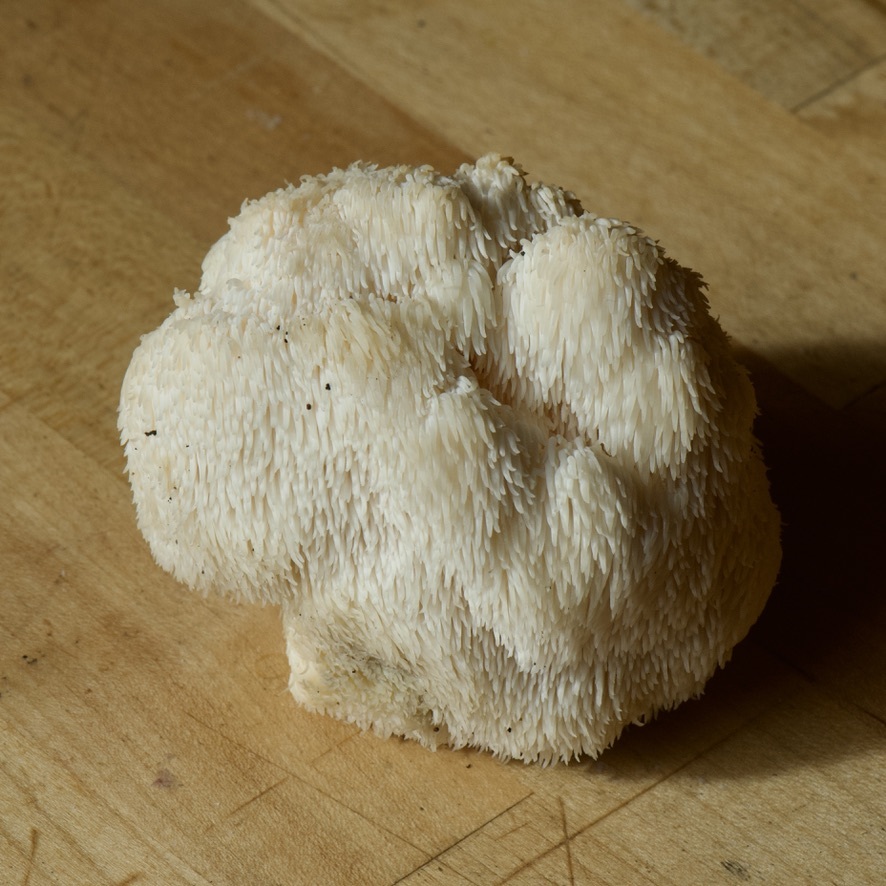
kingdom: Fungi
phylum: Basidiomycota
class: Agaricomycetes
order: Russulales
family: Hericiaceae
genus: Hericium
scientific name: Hericium erinaceus
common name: Bearded tooth
